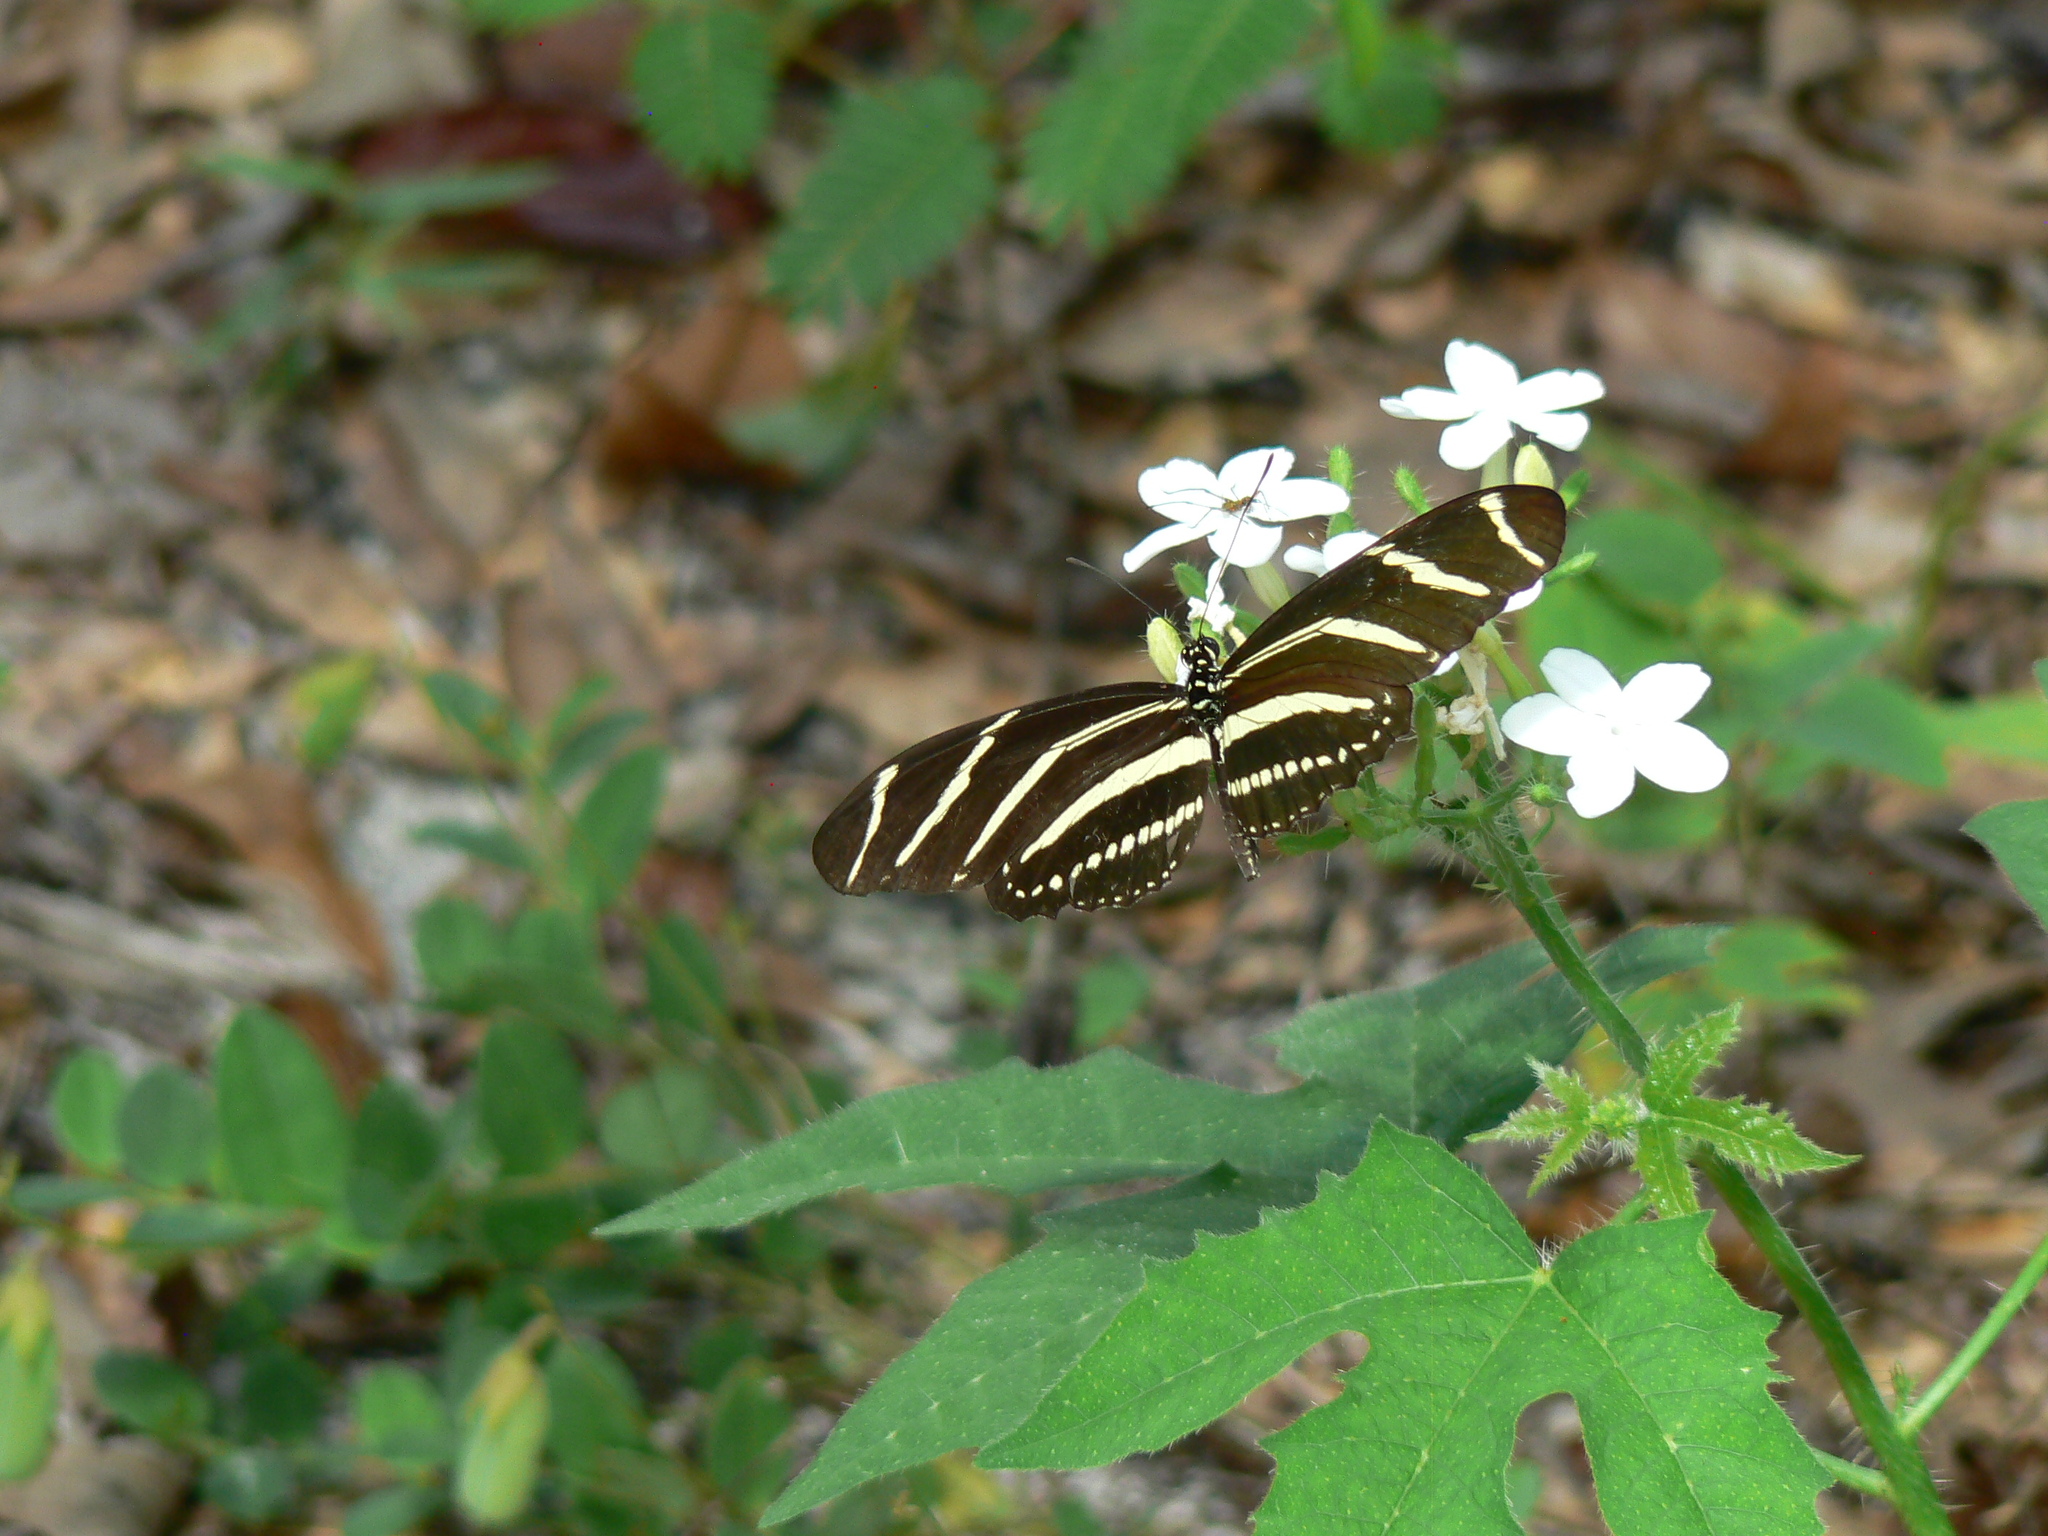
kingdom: Animalia
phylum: Arthropoda
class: Insecta
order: Lepidoptera
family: Nymphalidae
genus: Heliconius
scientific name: Heliconius charithonia
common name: Zebra long wing
